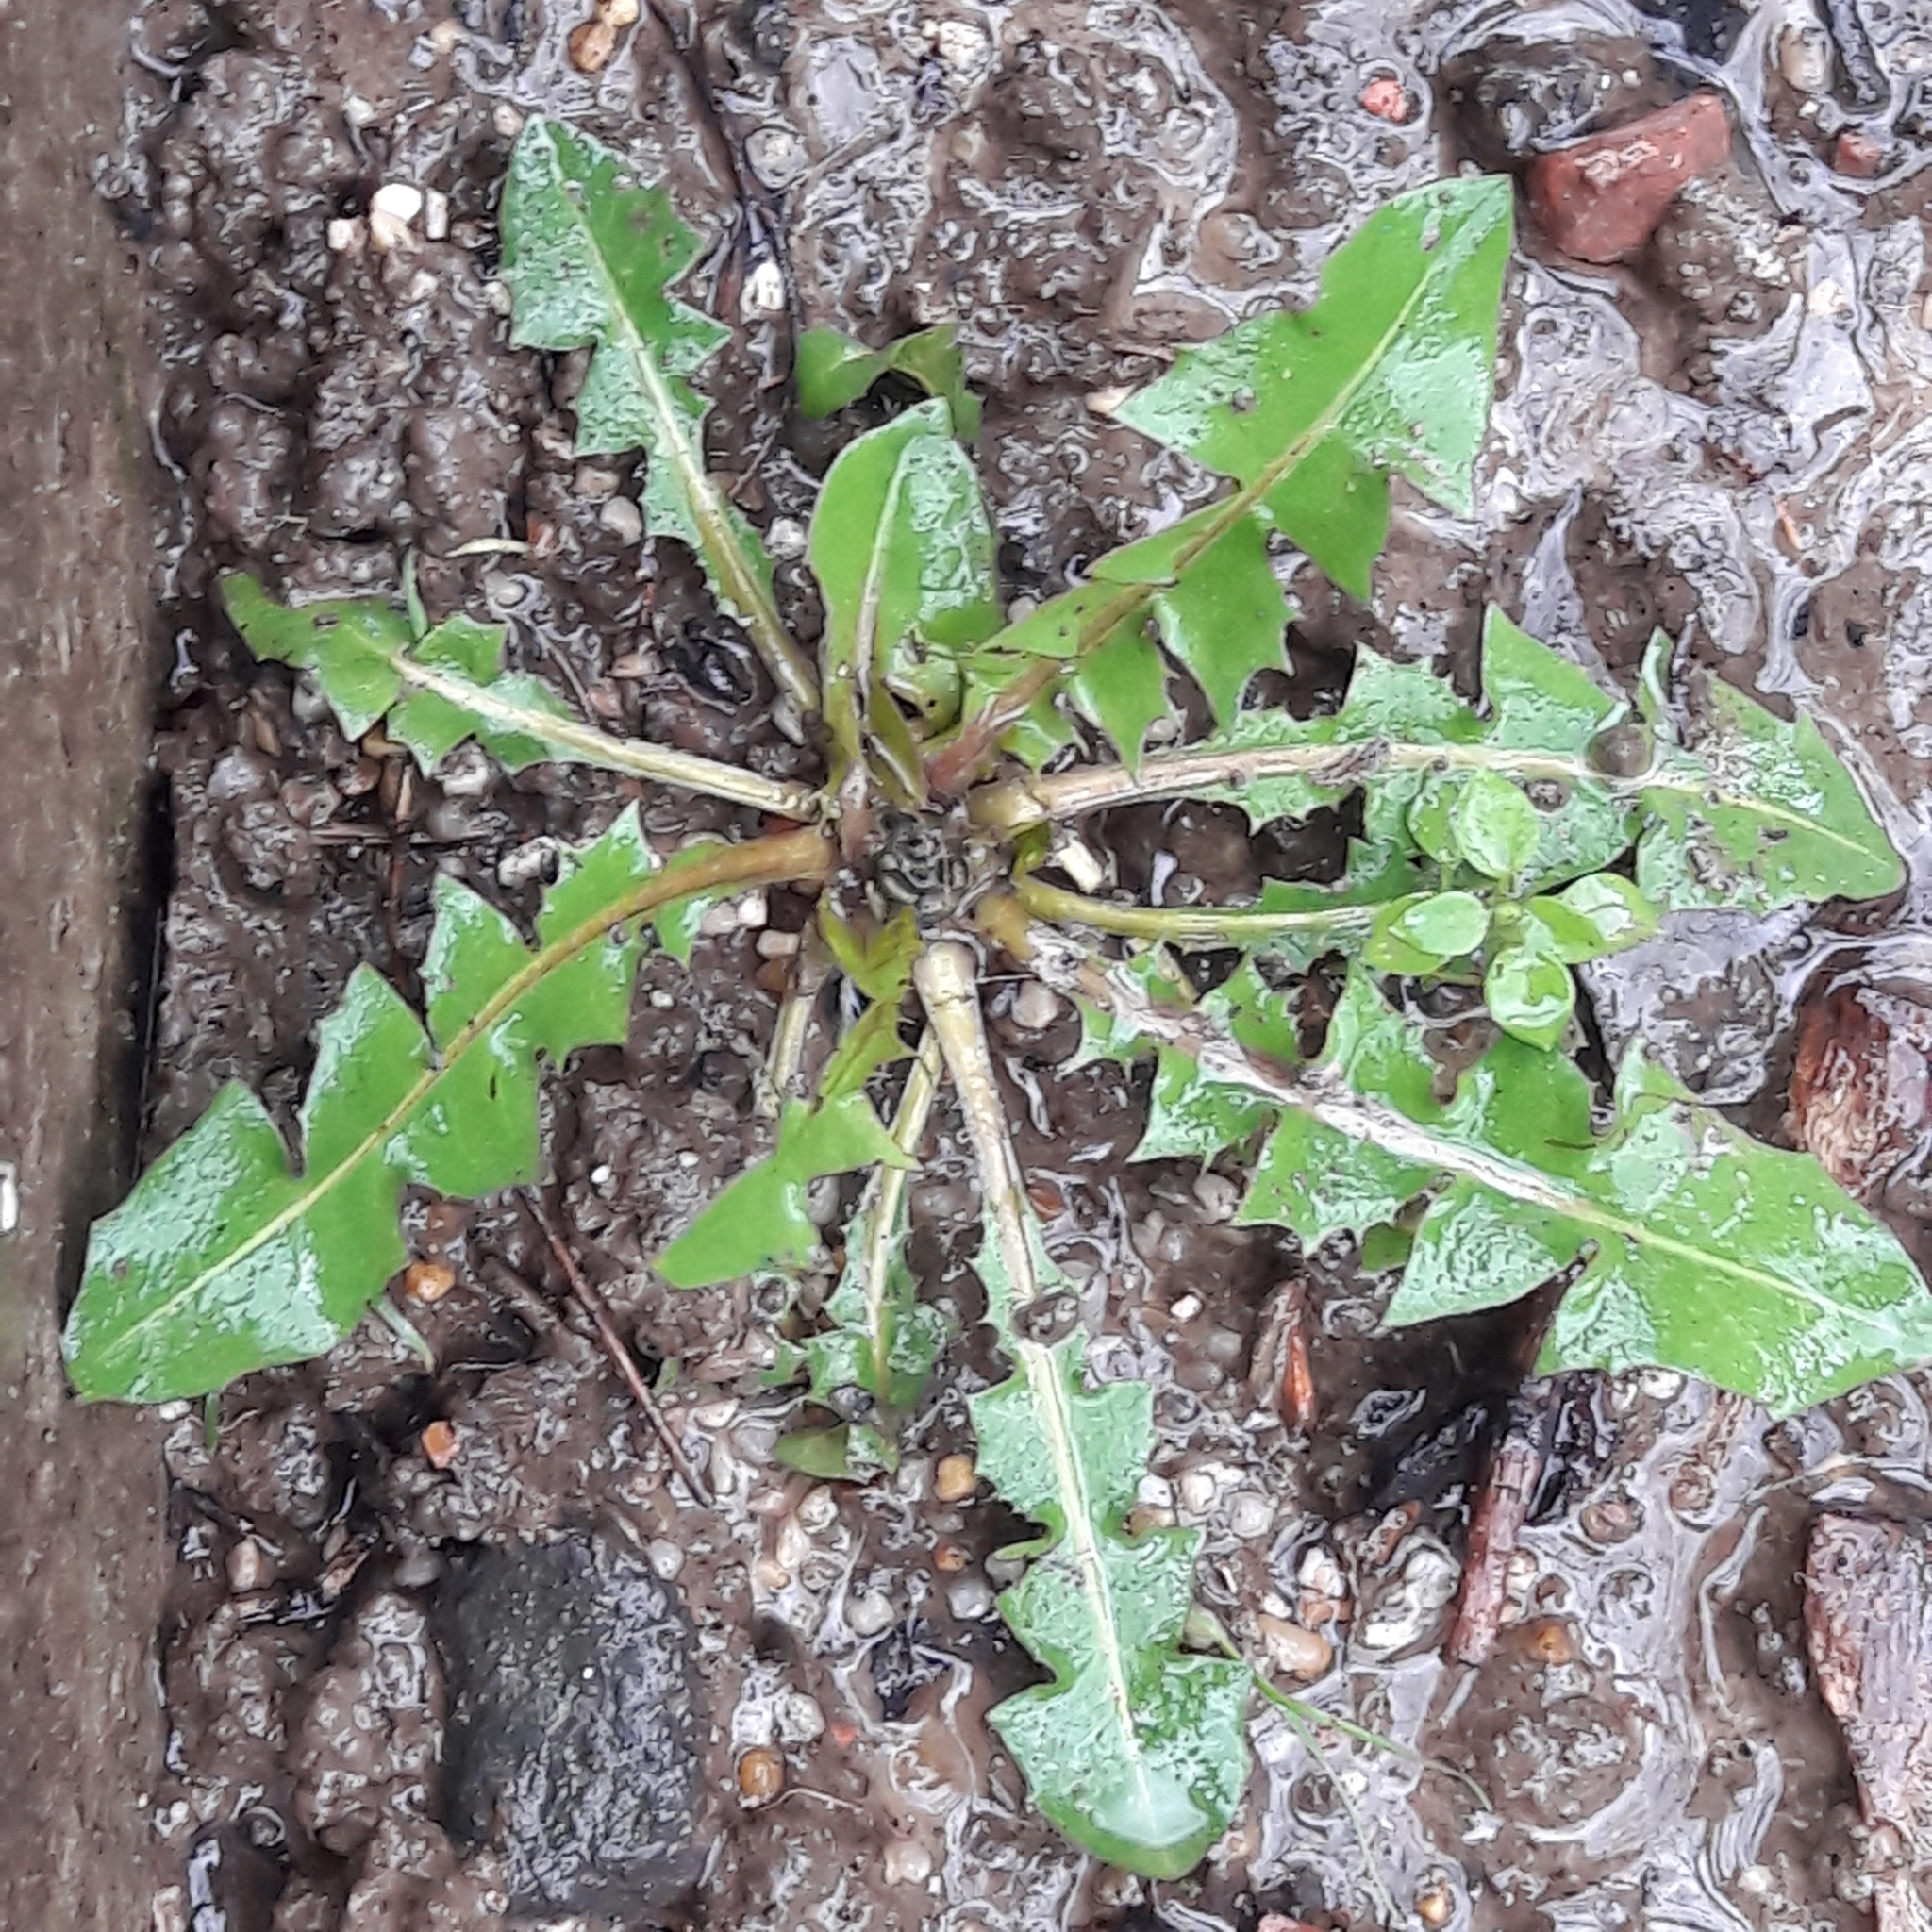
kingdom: Plantae
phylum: Tracheophyta
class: Magnoliopsida
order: Asterales
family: Asteraceae
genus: Taraxacum
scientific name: Taraxacum officinale
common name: Common dandelion
